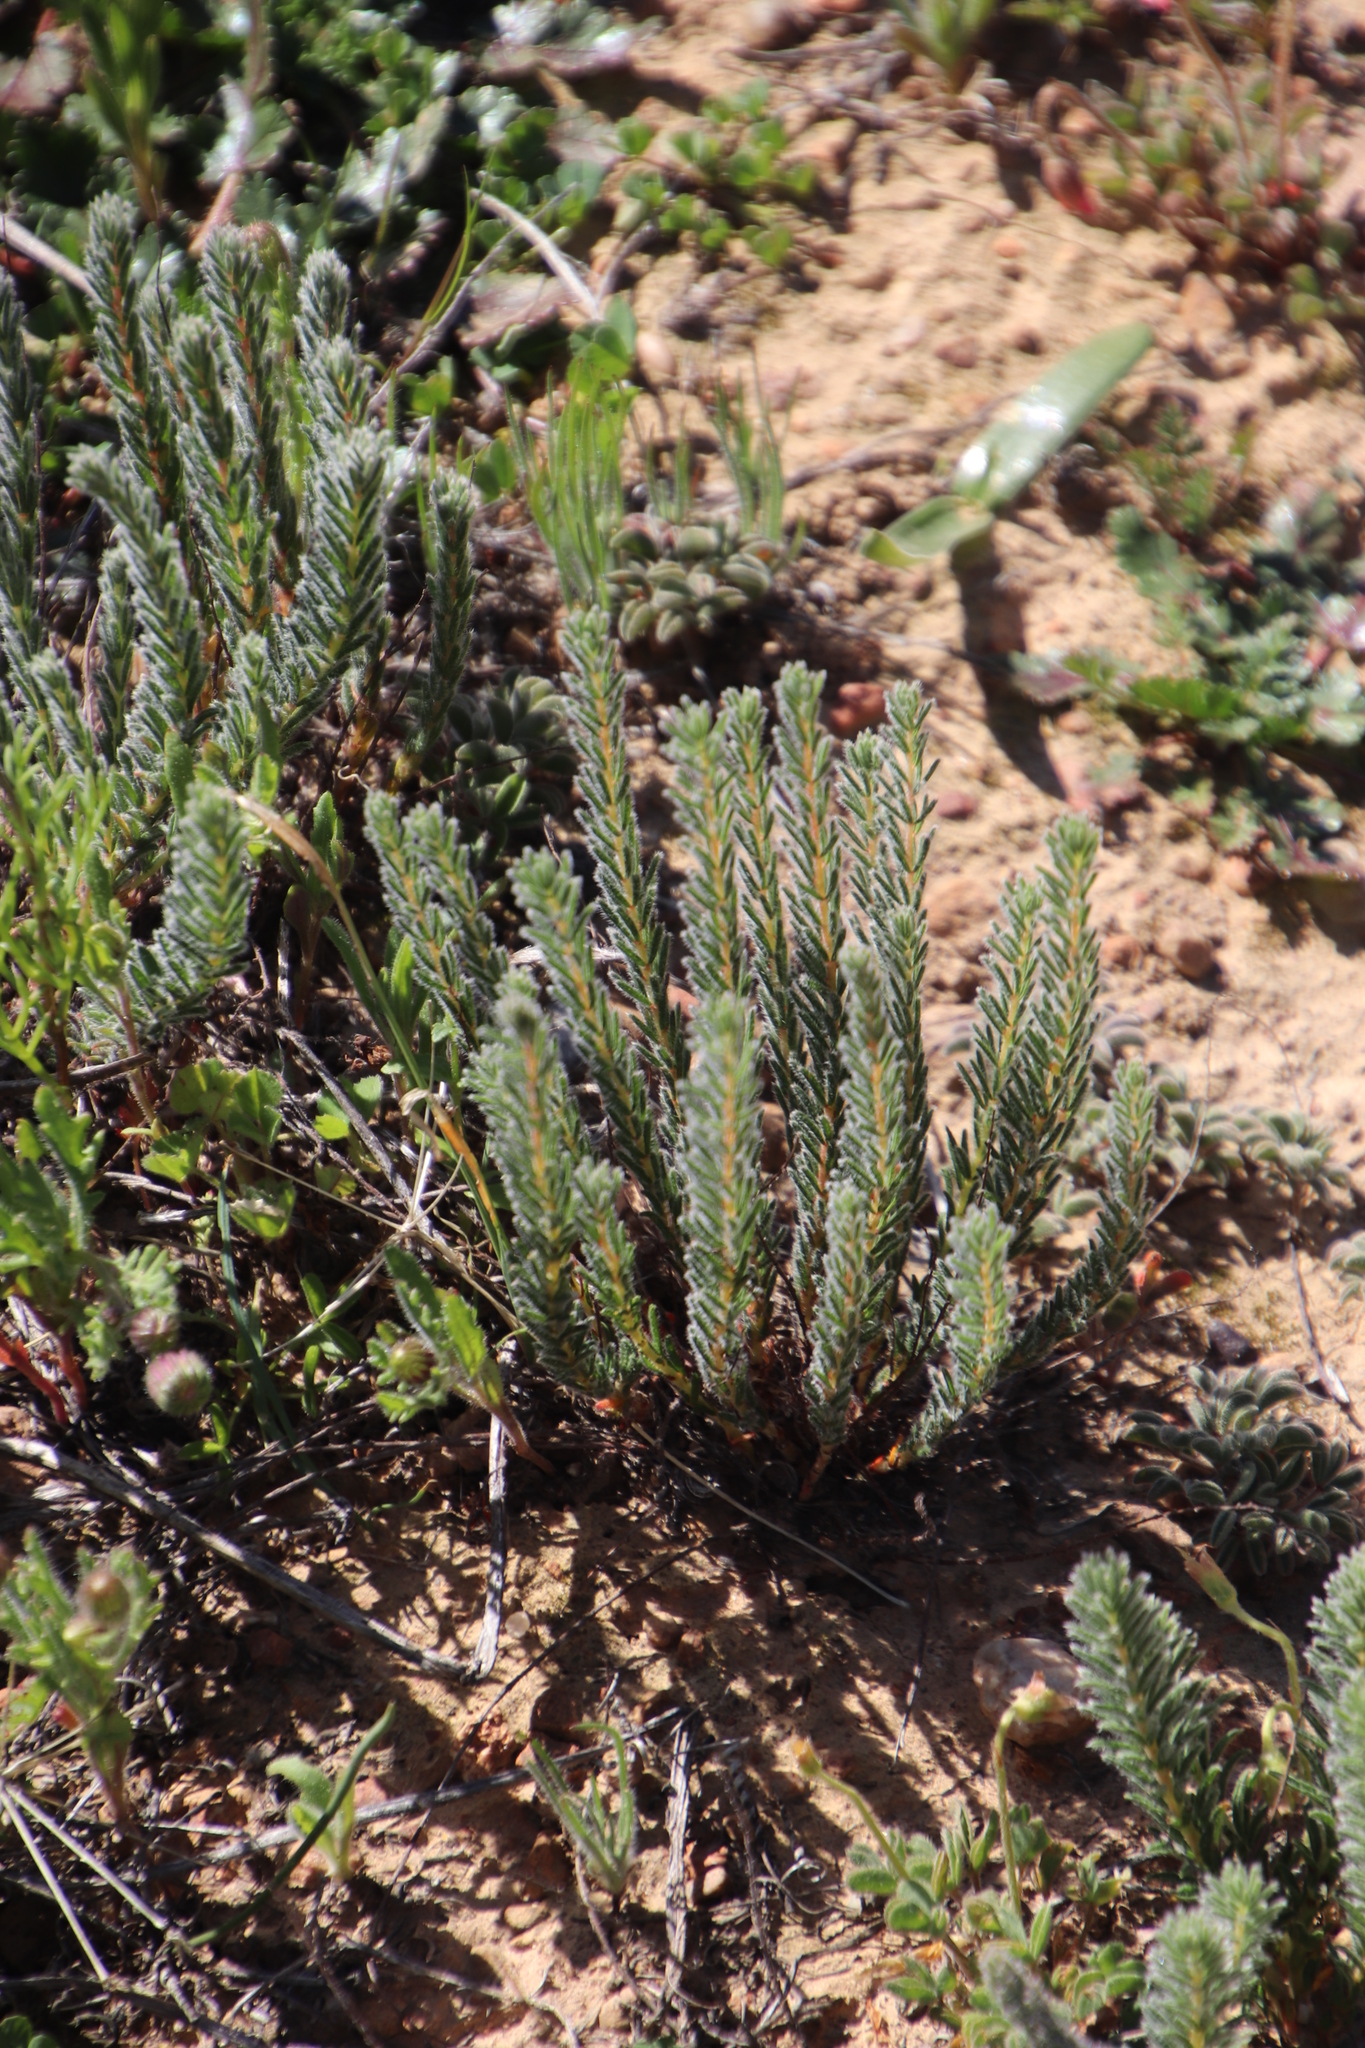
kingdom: Plantae
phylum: Tracheophyta
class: Magnoliopsida
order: Oxalidales
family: Oxalidaceae
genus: Oxalis
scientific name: Oxalis massoniana
